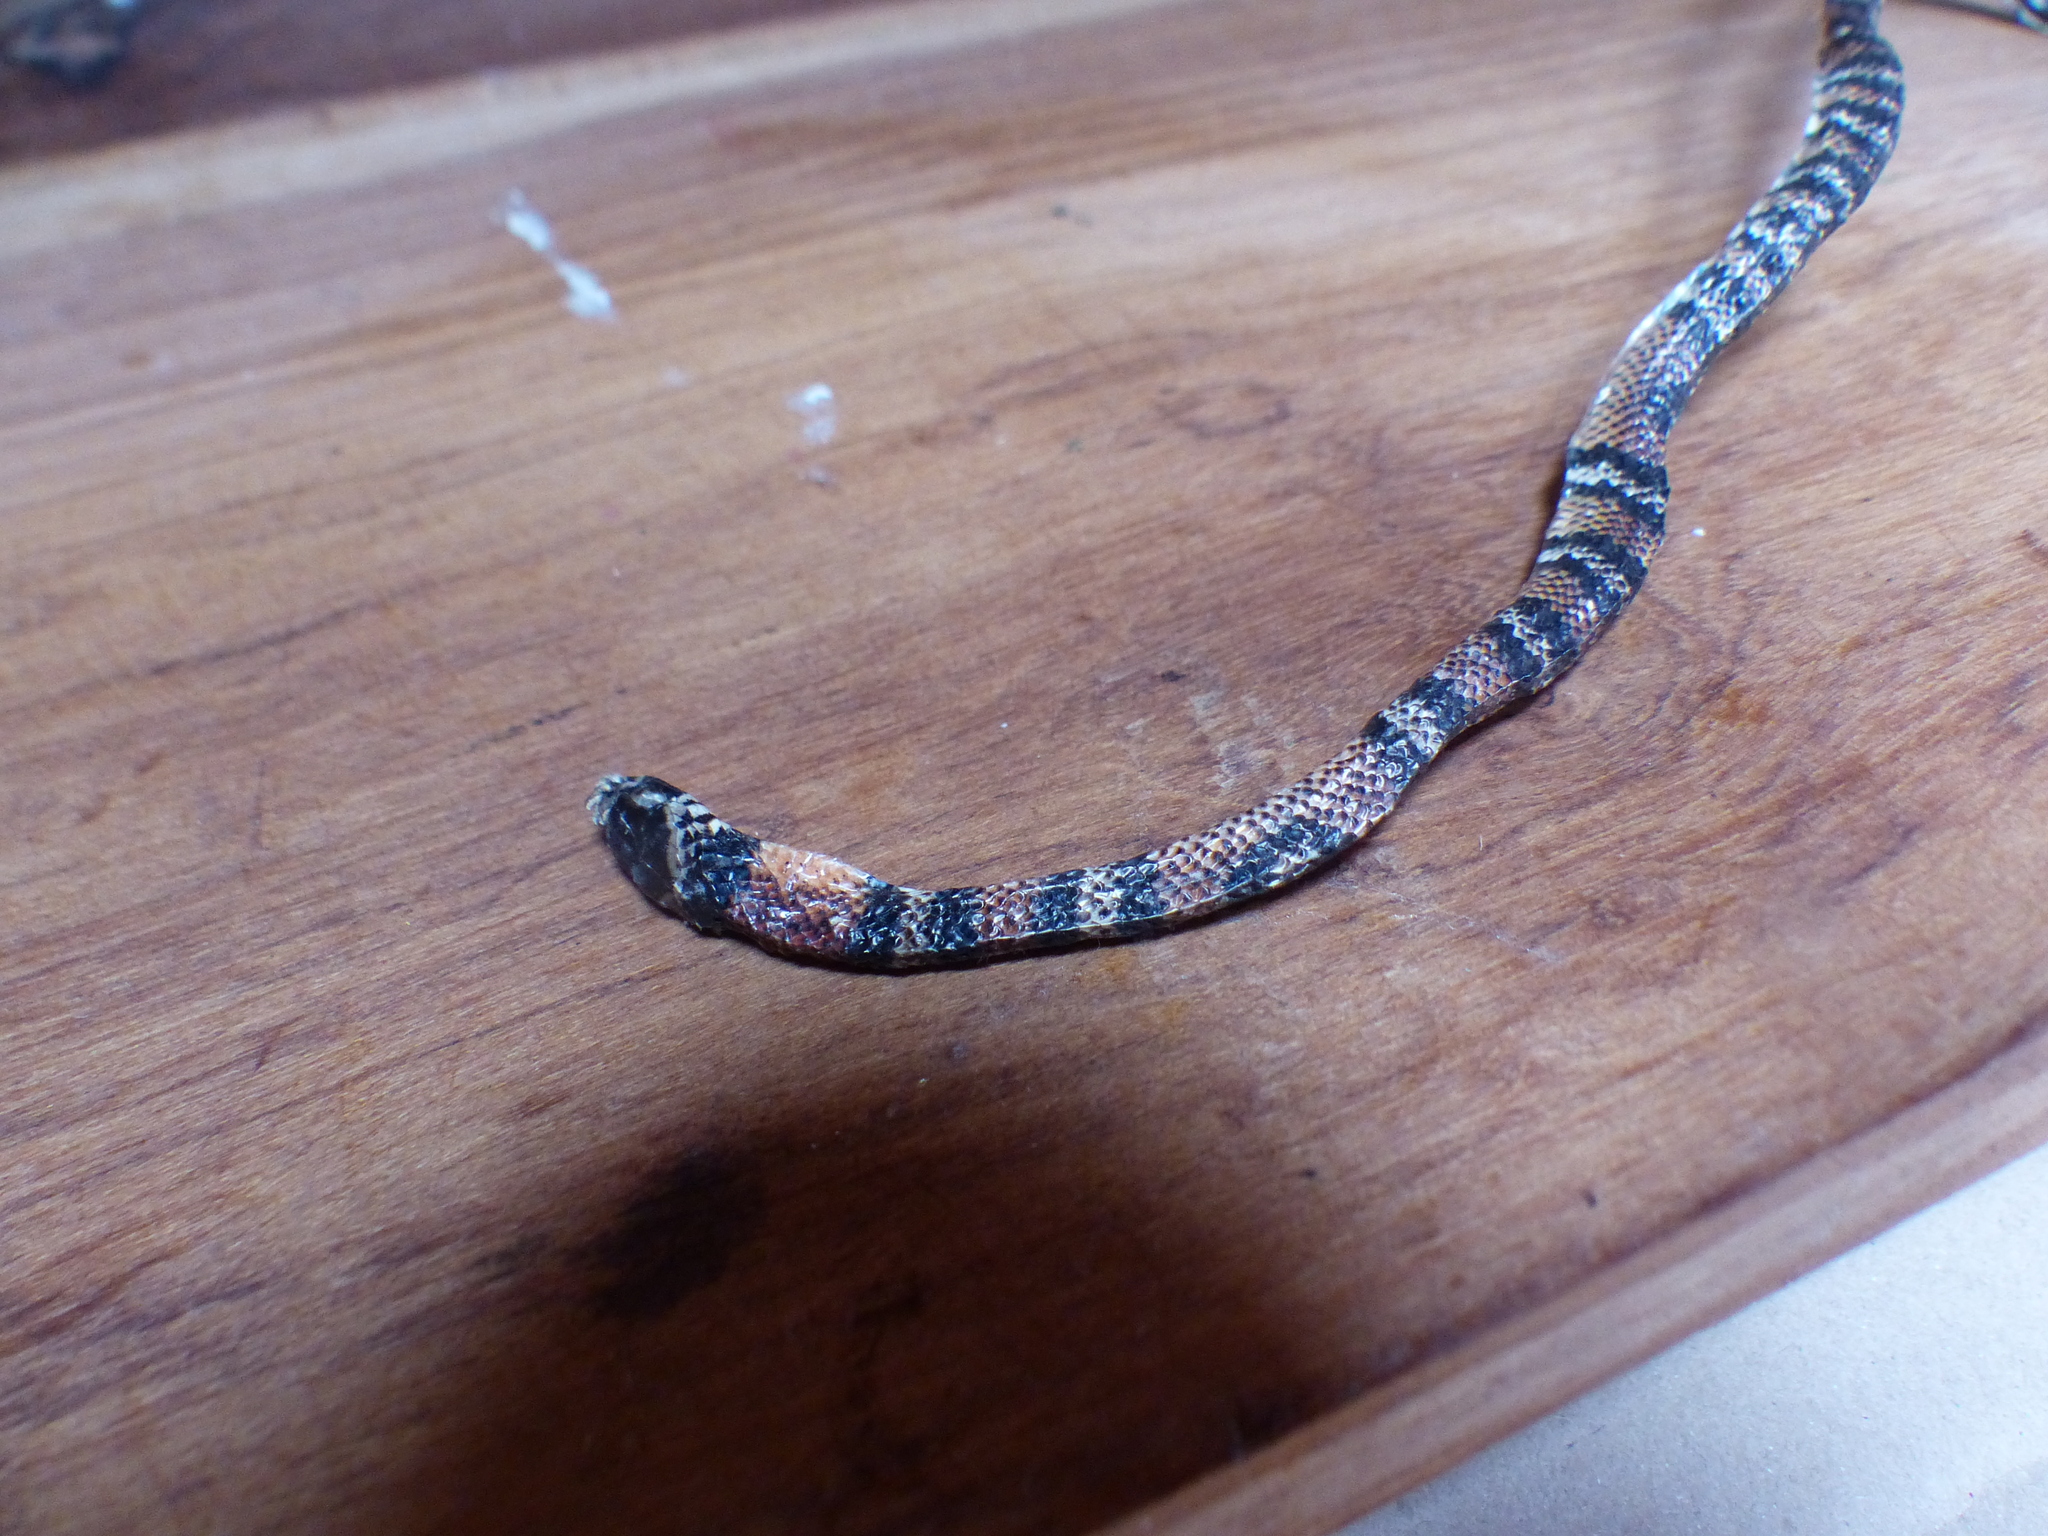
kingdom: Animalia
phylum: Chordata
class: Squamata
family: Colubridae
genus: Lampropeltis
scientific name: Lampropeltis micropholis
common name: Ecuadorian milksnake
